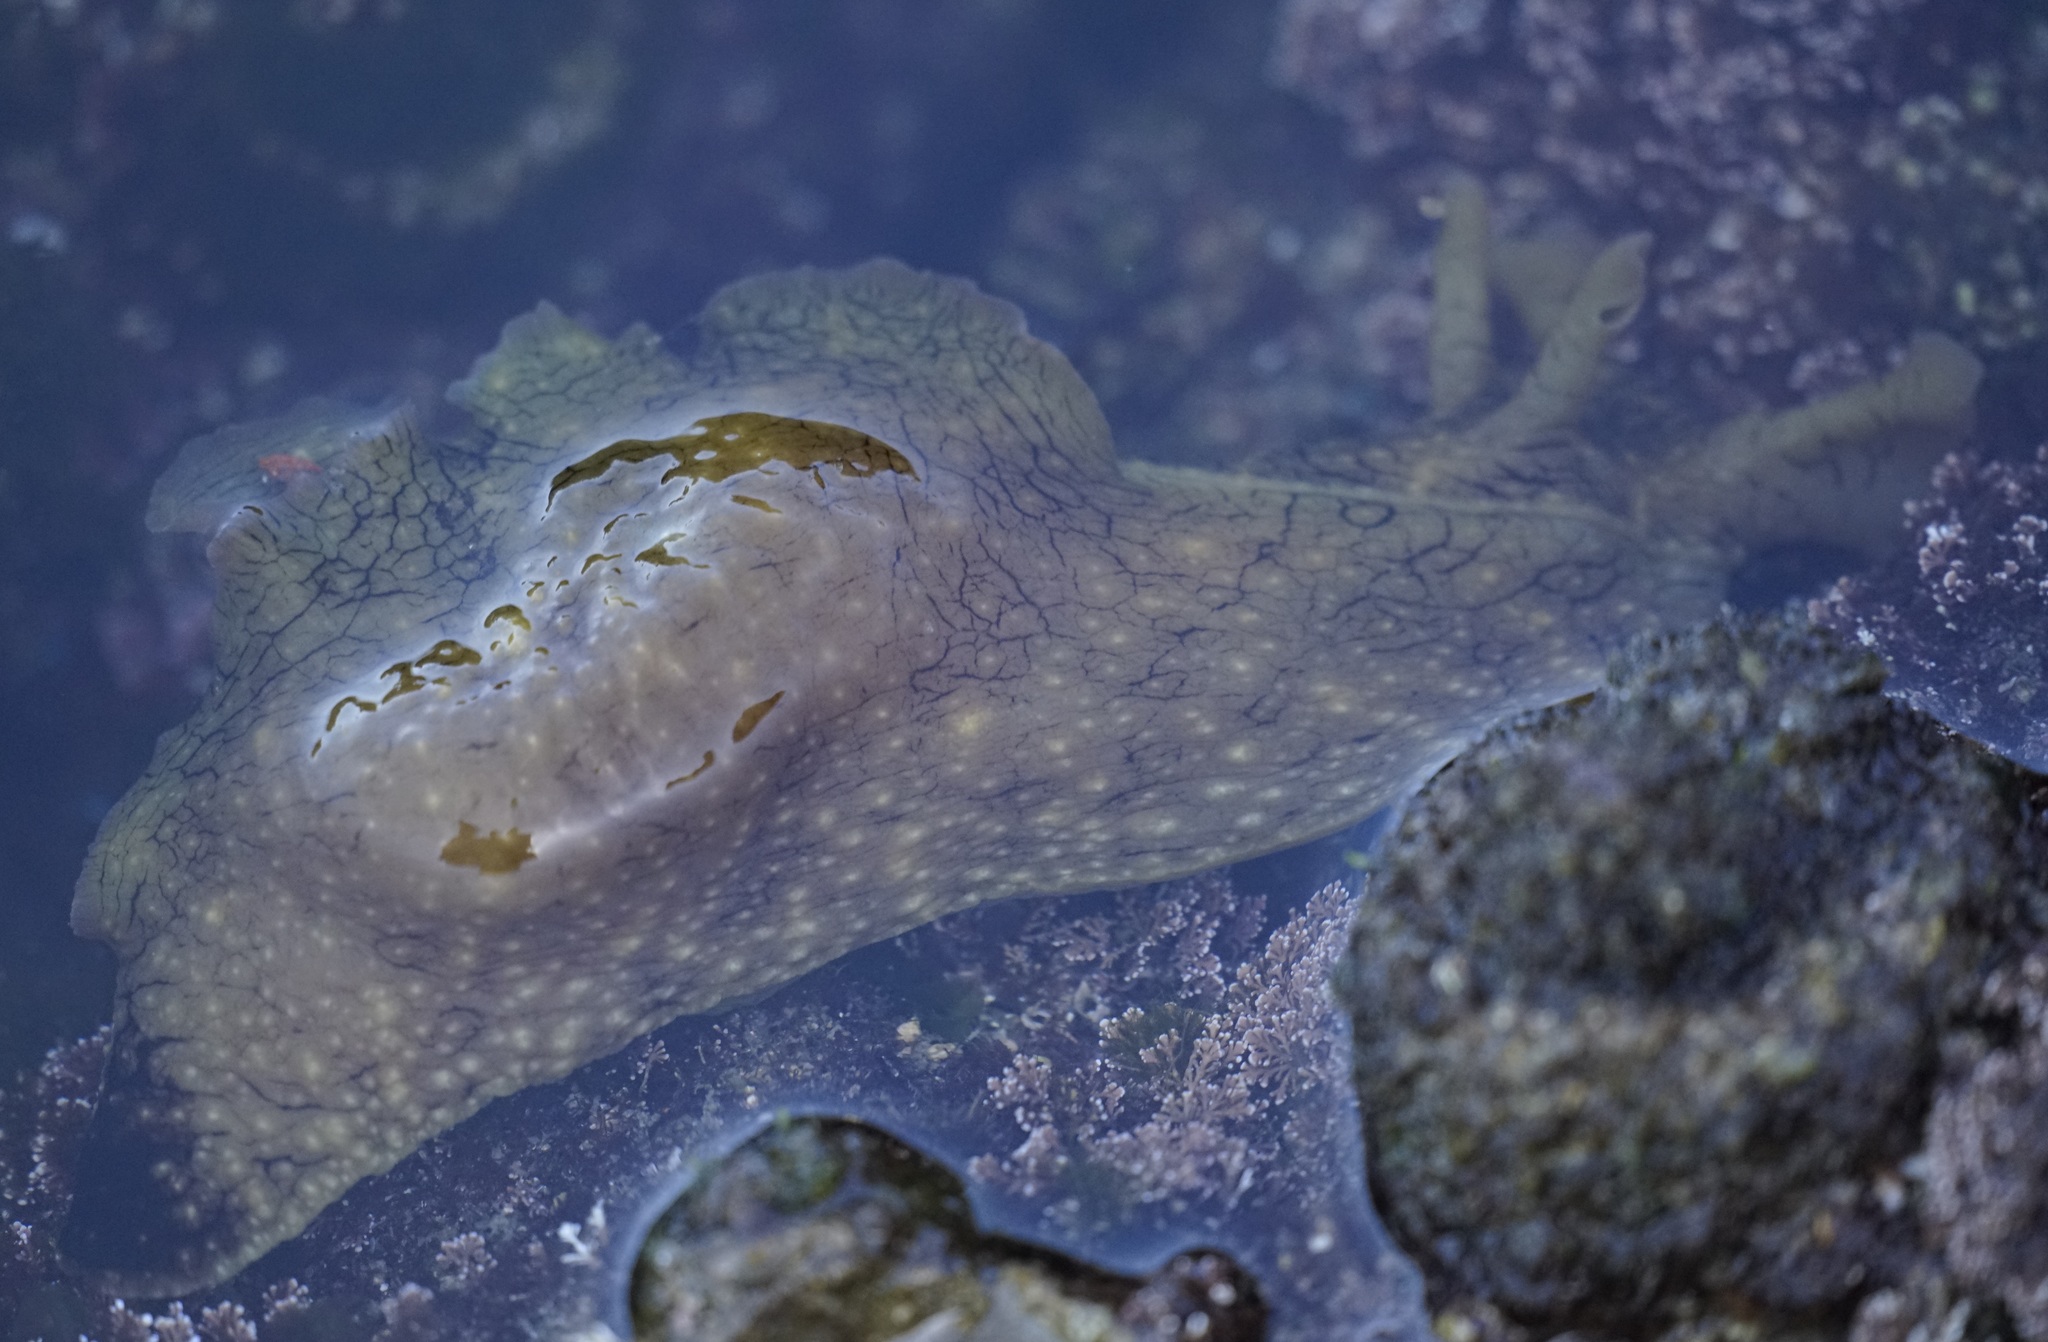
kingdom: Animalia
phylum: Mollusca
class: Gastropoda
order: Aplysiida
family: Aplysiidae
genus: Aplysia
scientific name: Aplysia argus
